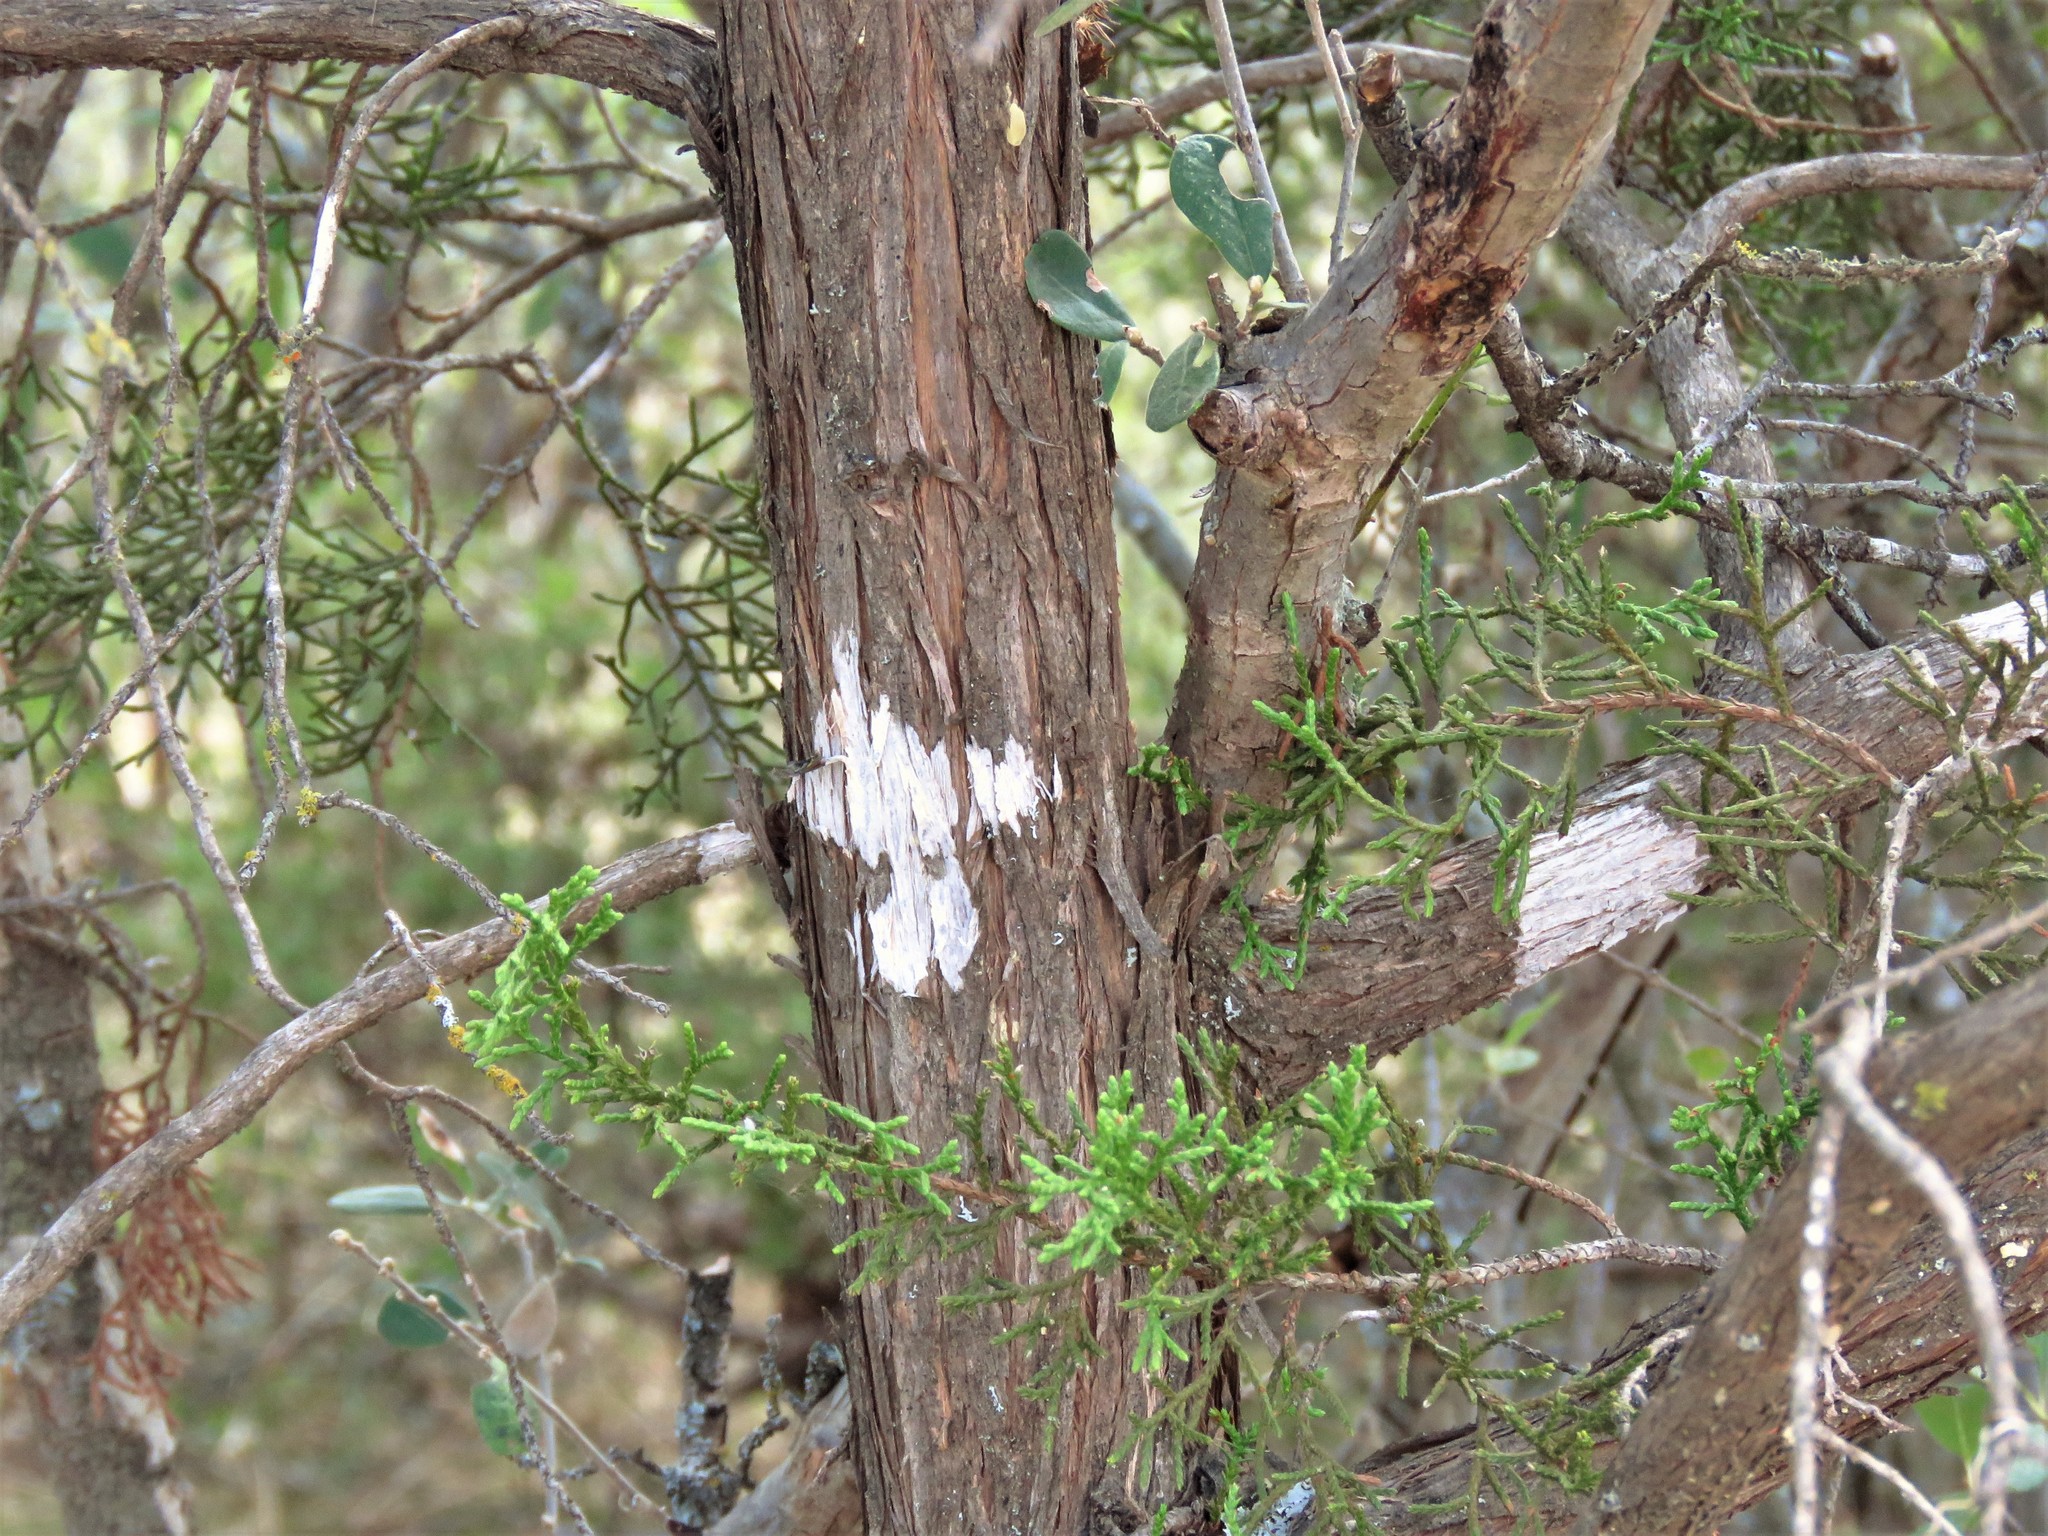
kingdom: Fungi
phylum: Ascomycota
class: Lecanoromycetes
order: Ostropales
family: Stictidaceae
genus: Robergea
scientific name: Robergea
